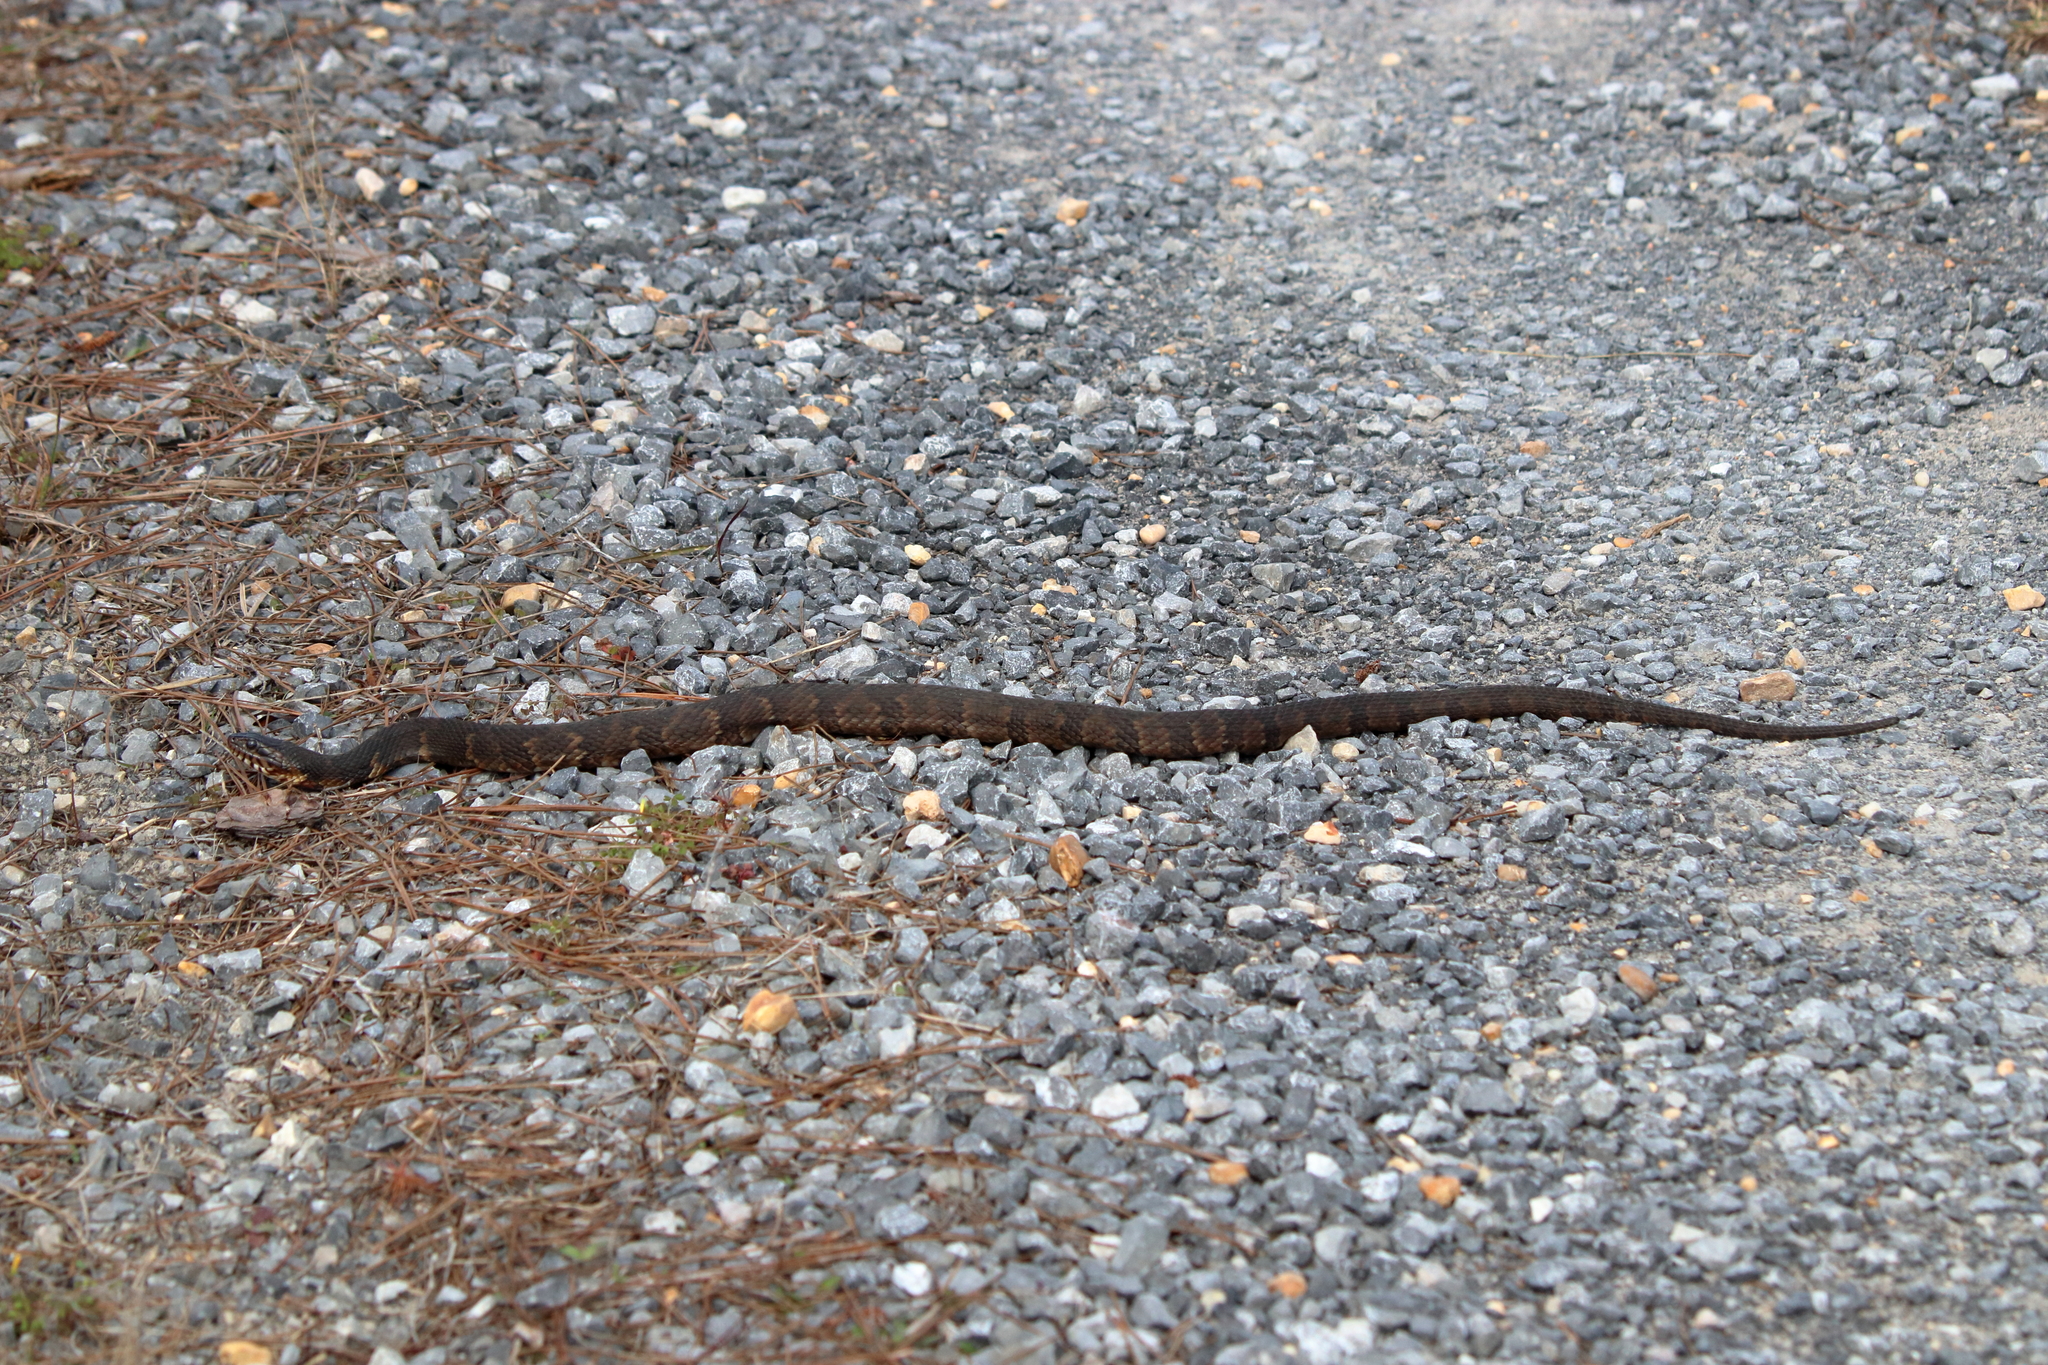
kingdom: Animalia
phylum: Chordata
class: Squamata
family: Colubridae
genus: Nerodia
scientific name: Nerodia fasciata
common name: Southern water snake
